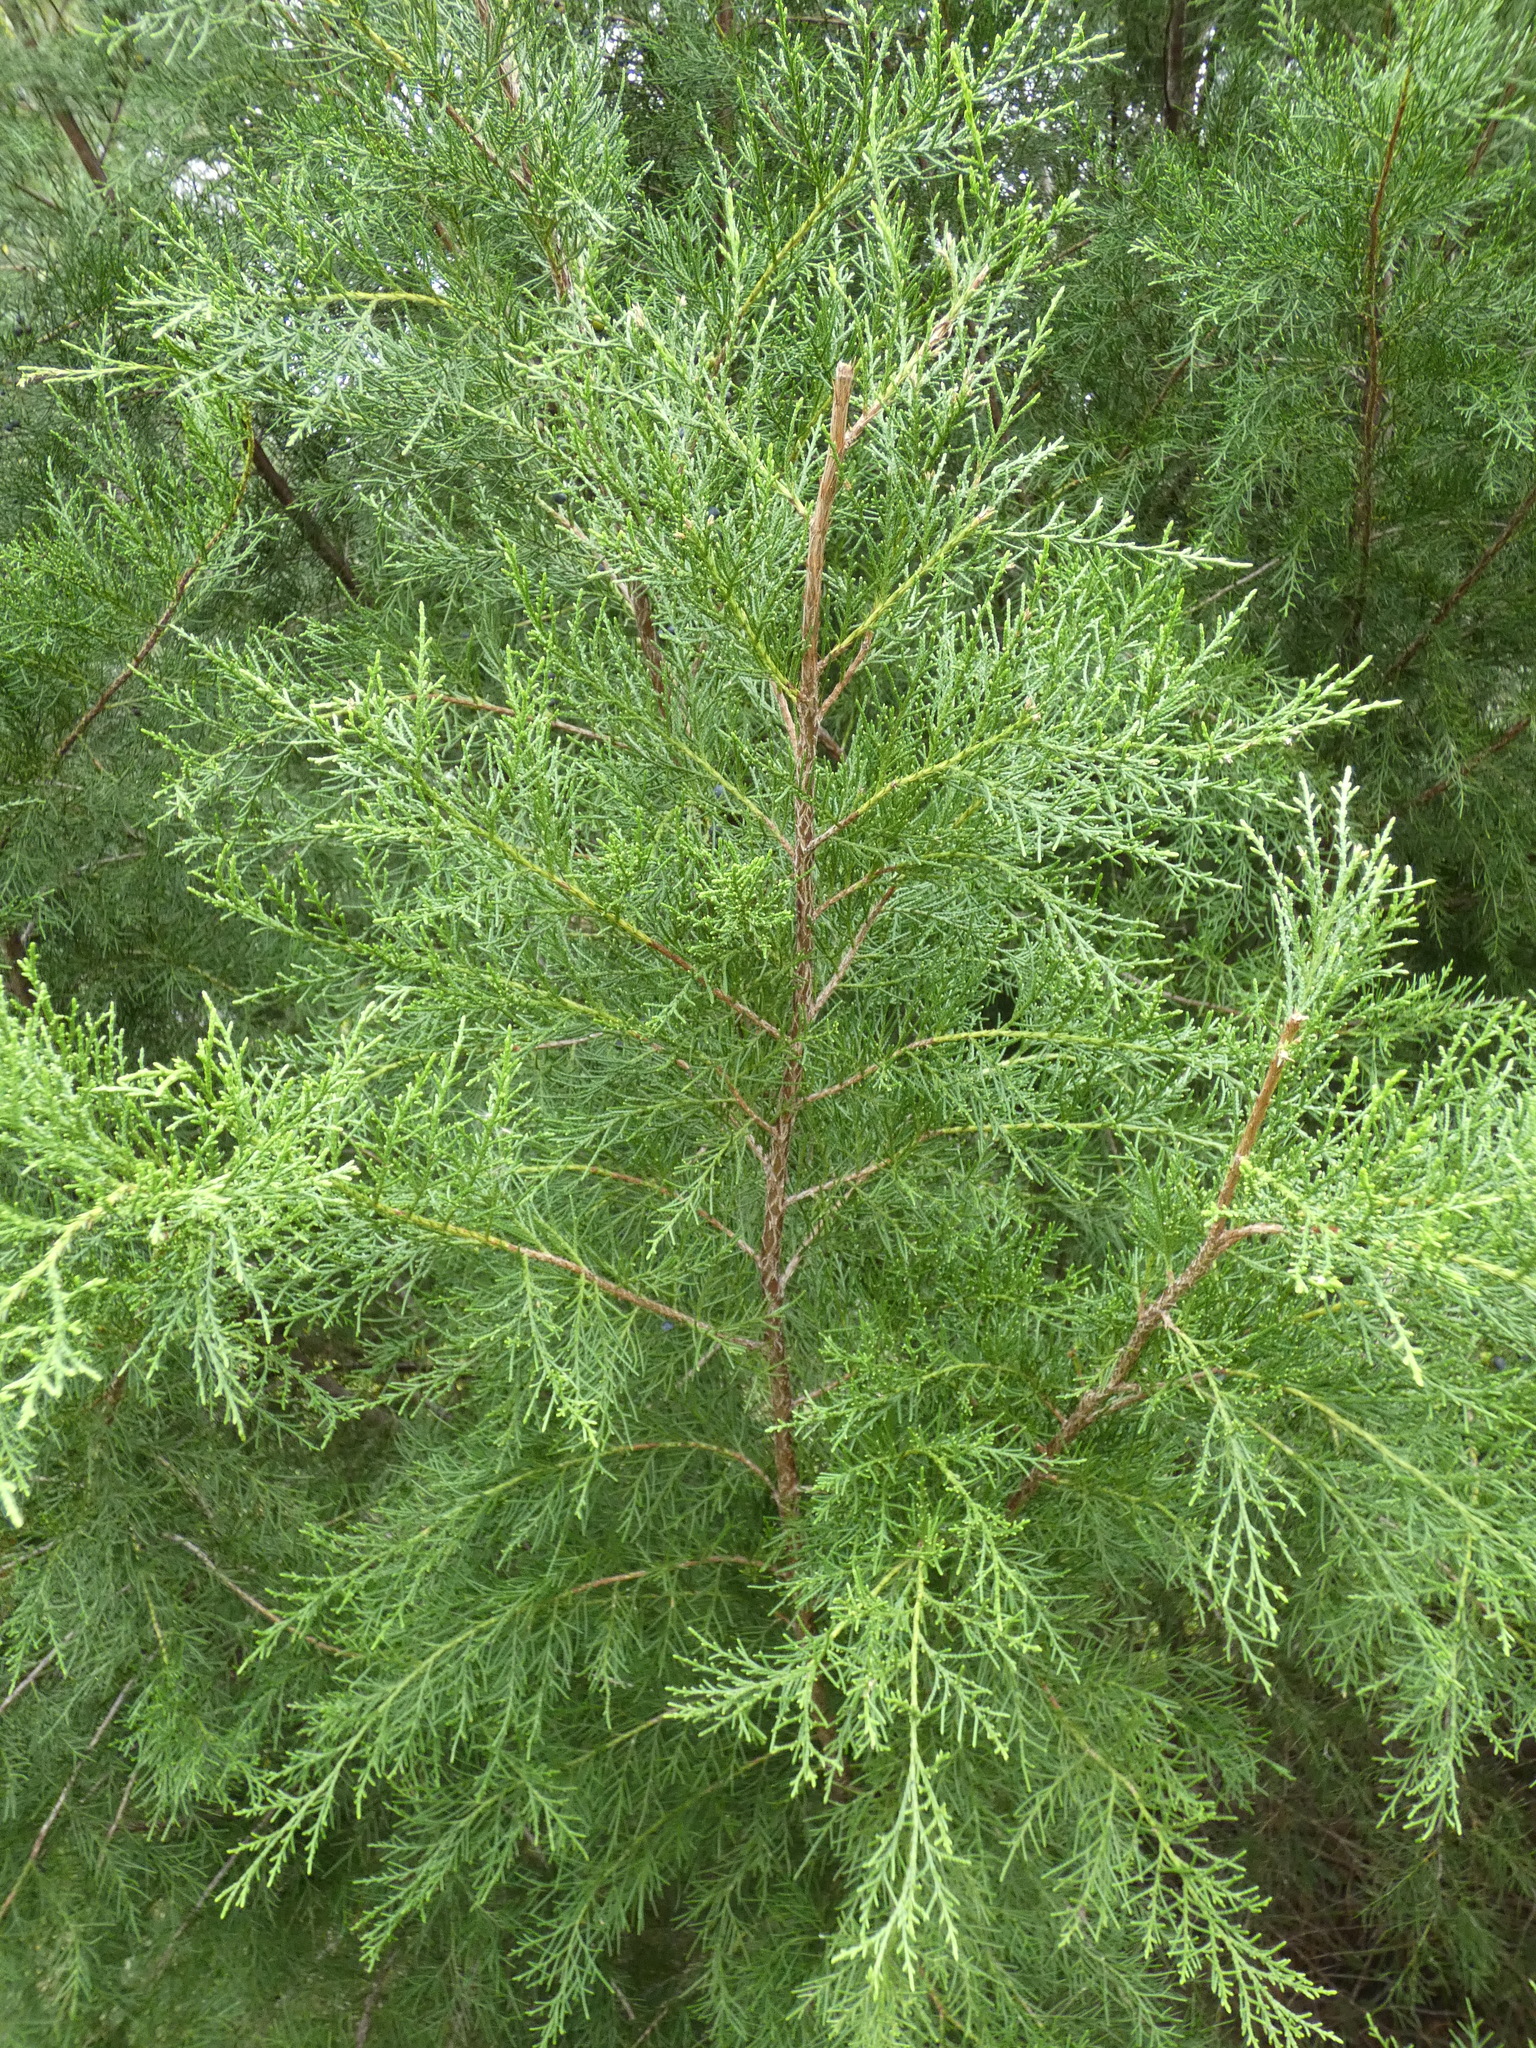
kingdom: Plantae
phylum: Tracheophyta
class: Pinopsida
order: Pinales
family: Cupressaceae
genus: Juniperus
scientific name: Juniperus virginiana
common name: Red juniper
